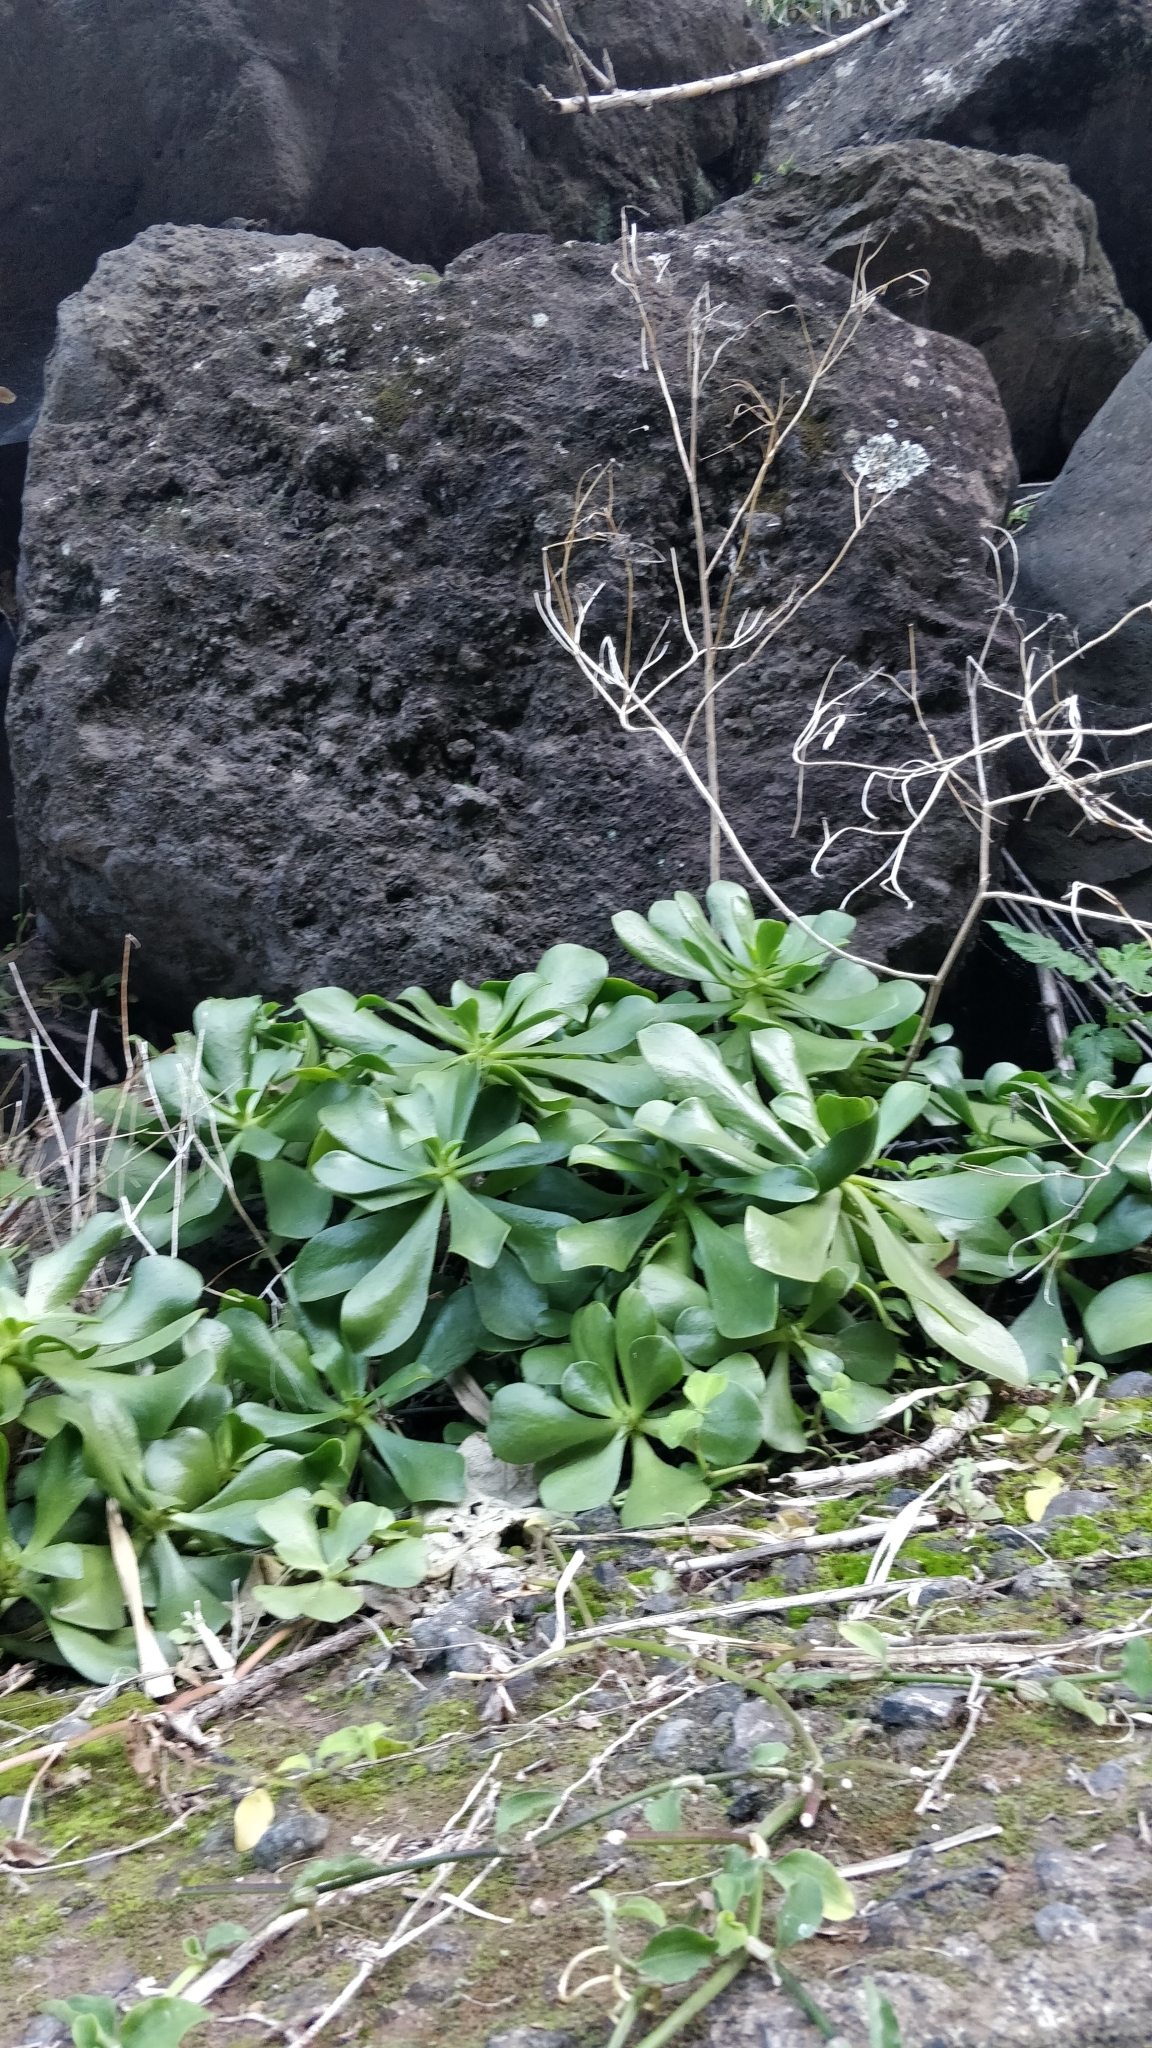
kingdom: Plantae
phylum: Tracheophyta
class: Magnoliopsida
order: Saxifragales
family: Crassulaceae
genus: Aeonium
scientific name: Aeonium glutinosum
